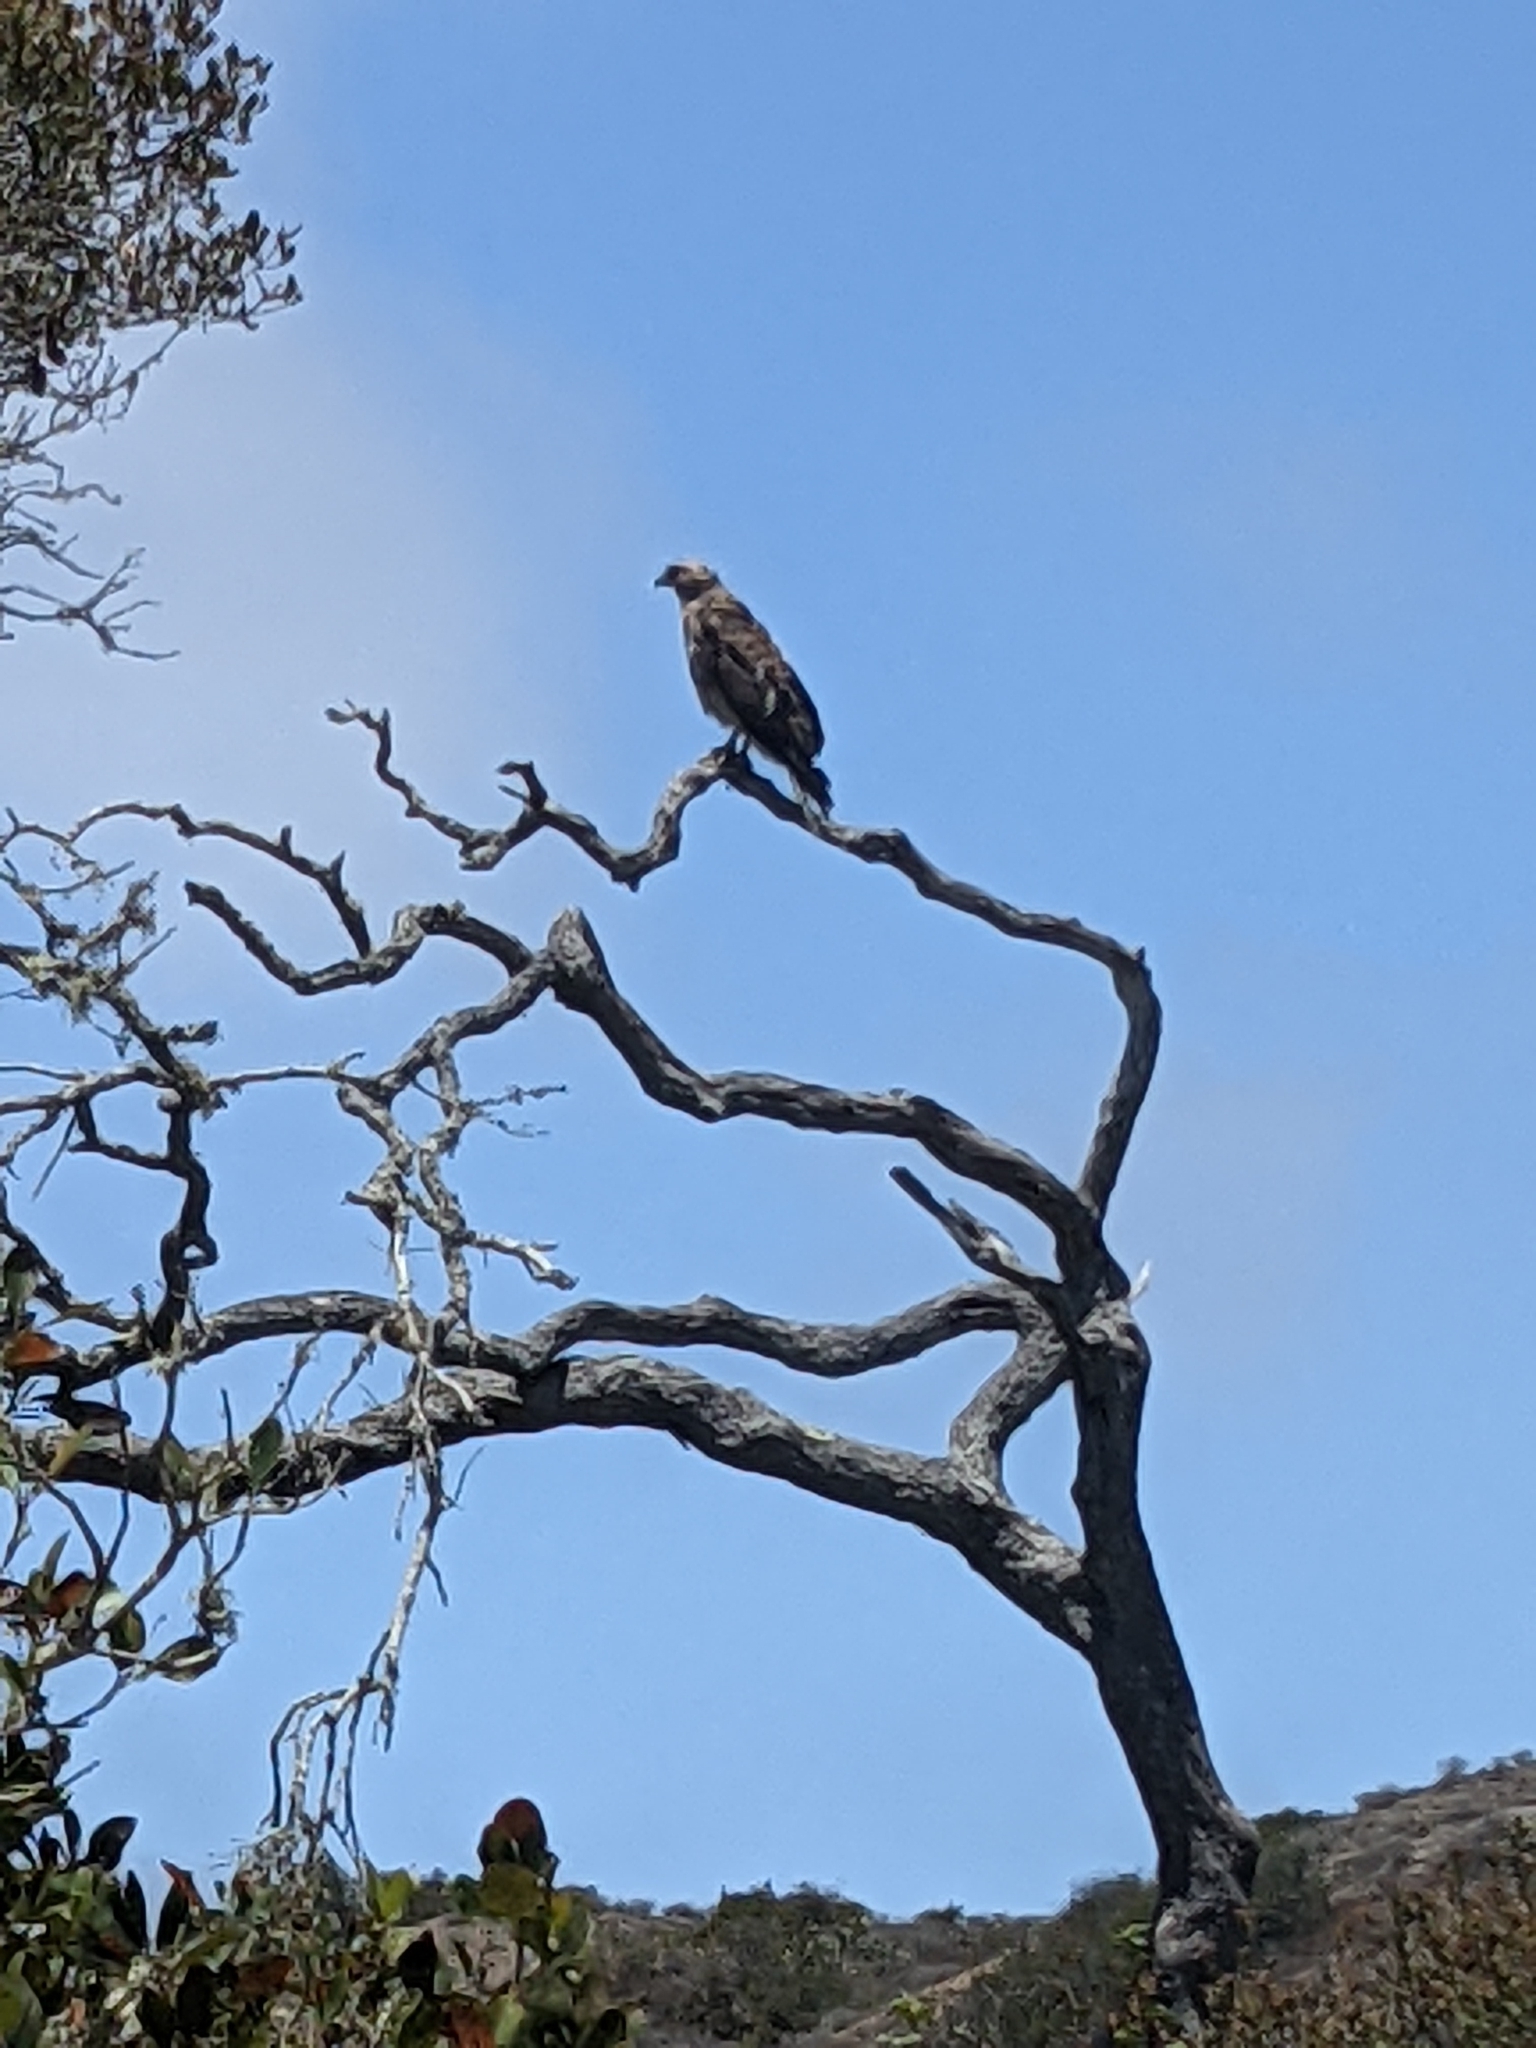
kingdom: Animalia
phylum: Chordata
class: Aves
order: Accipitriformes
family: Accipitridae
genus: Buteo
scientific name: Buteo jamaicensis
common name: Red-tailed hawk
